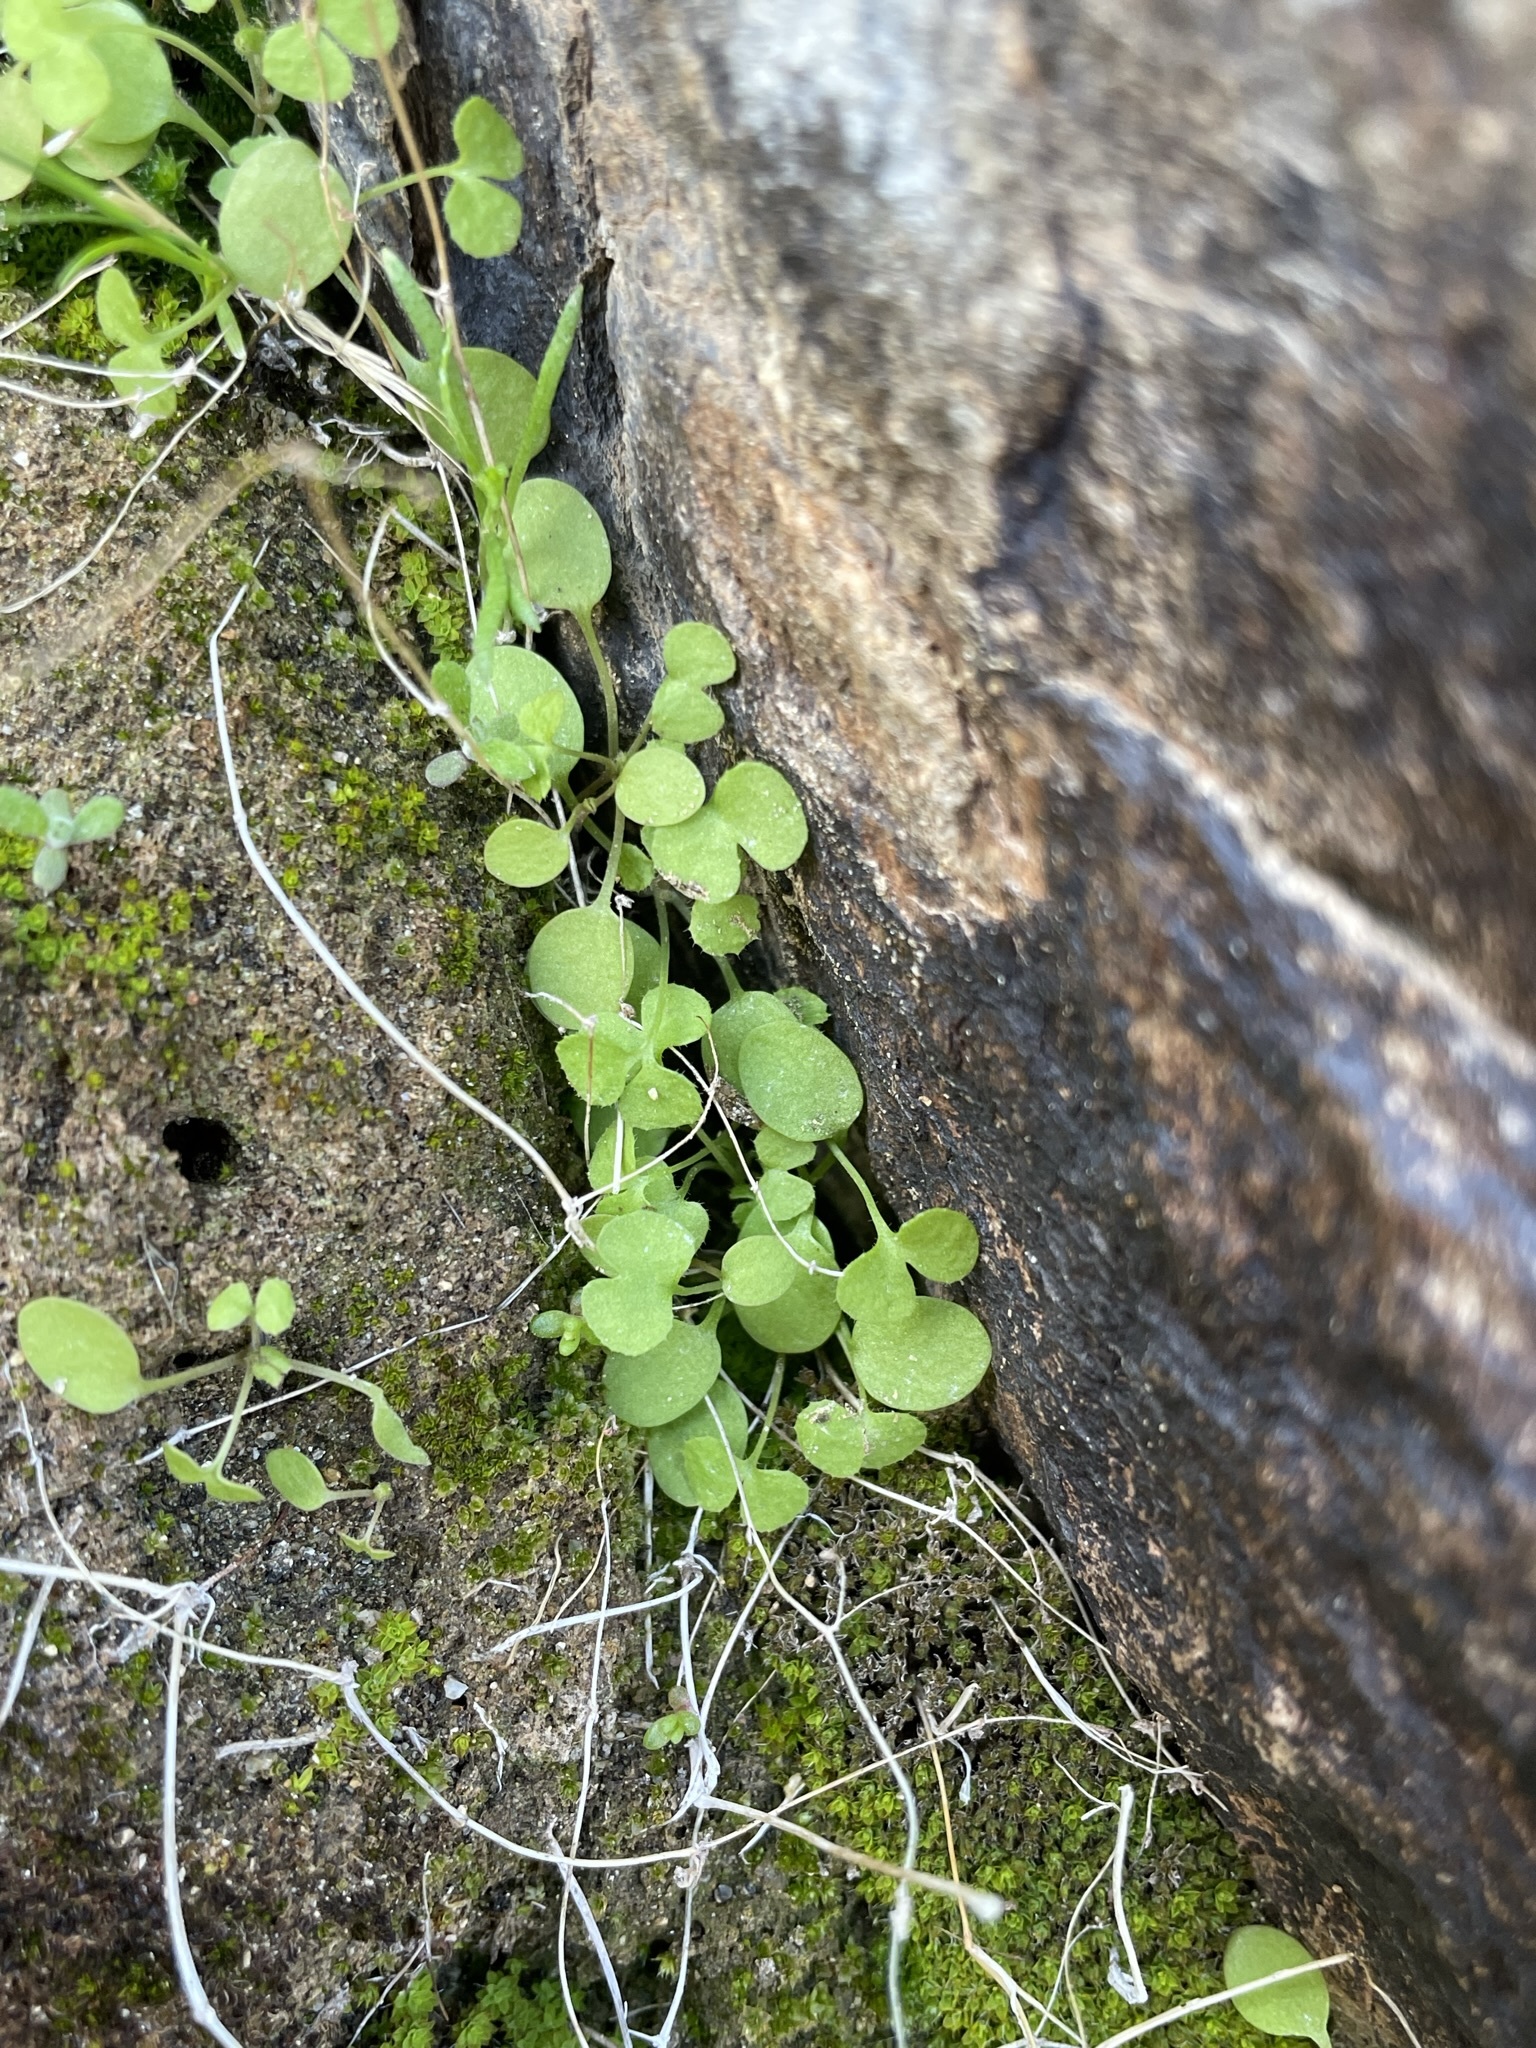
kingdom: Plantae
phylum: Tracheophyta
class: Magnoliopsida
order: Caryophyllales
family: Polygonaceae
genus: Pterostegia
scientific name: Pterostegia drymarioides
